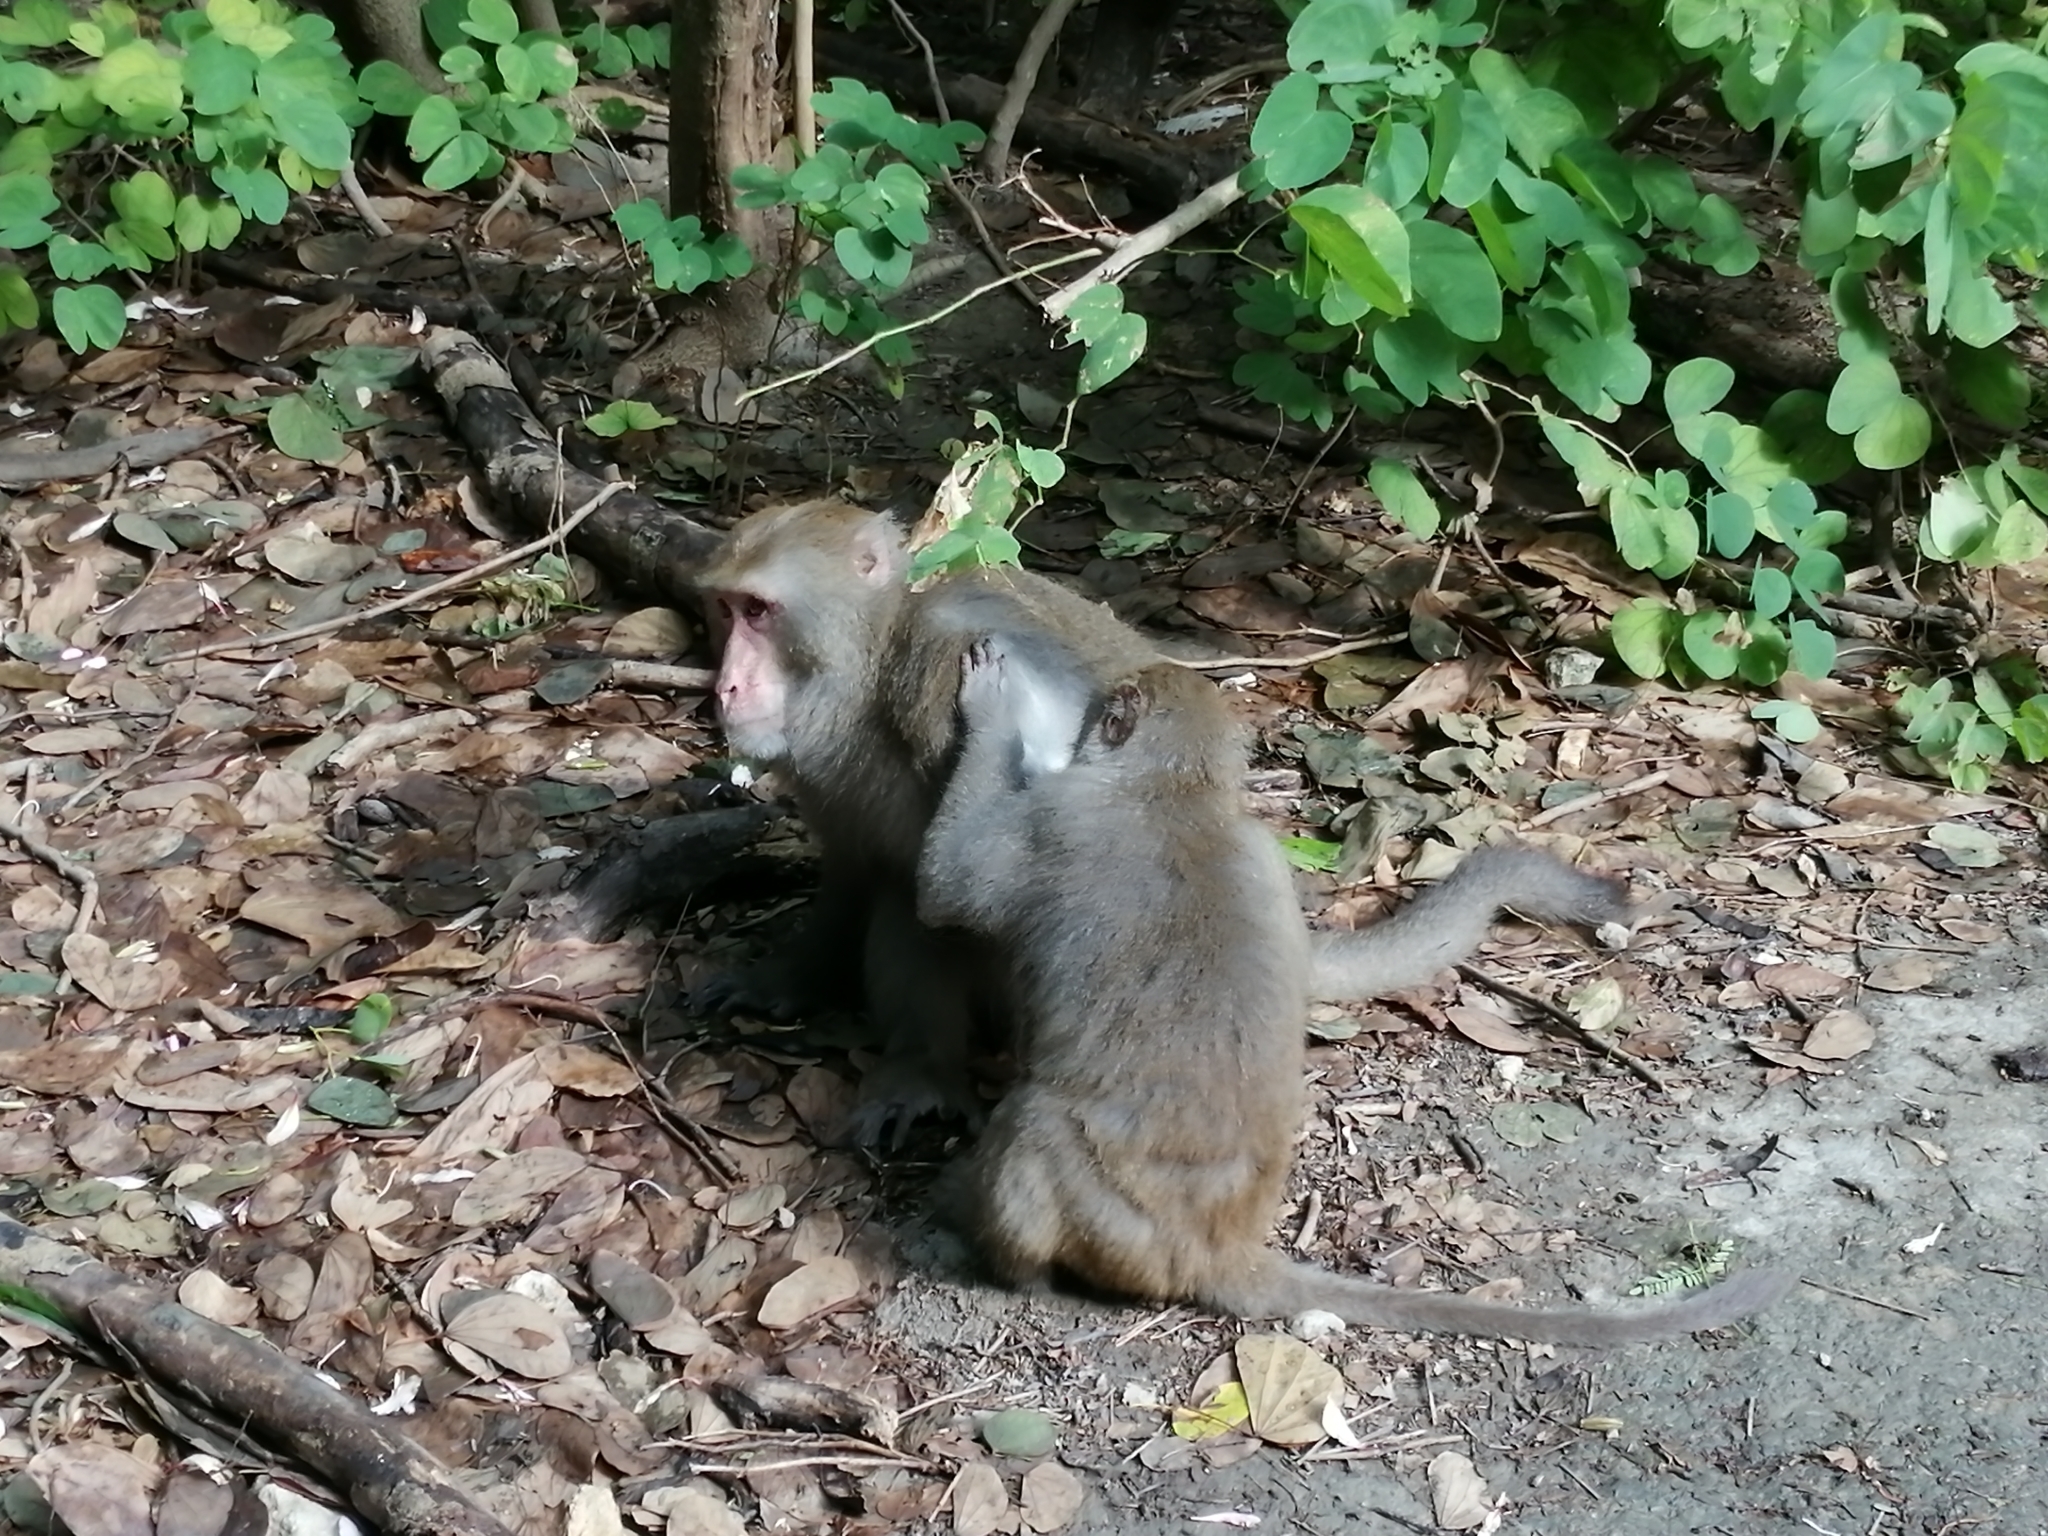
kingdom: Animalia
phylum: Chordata
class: Mammalia
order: Primates
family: Cercopithecidae
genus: Macaca
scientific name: Macaca cyclopis
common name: Formosan rock macaque
